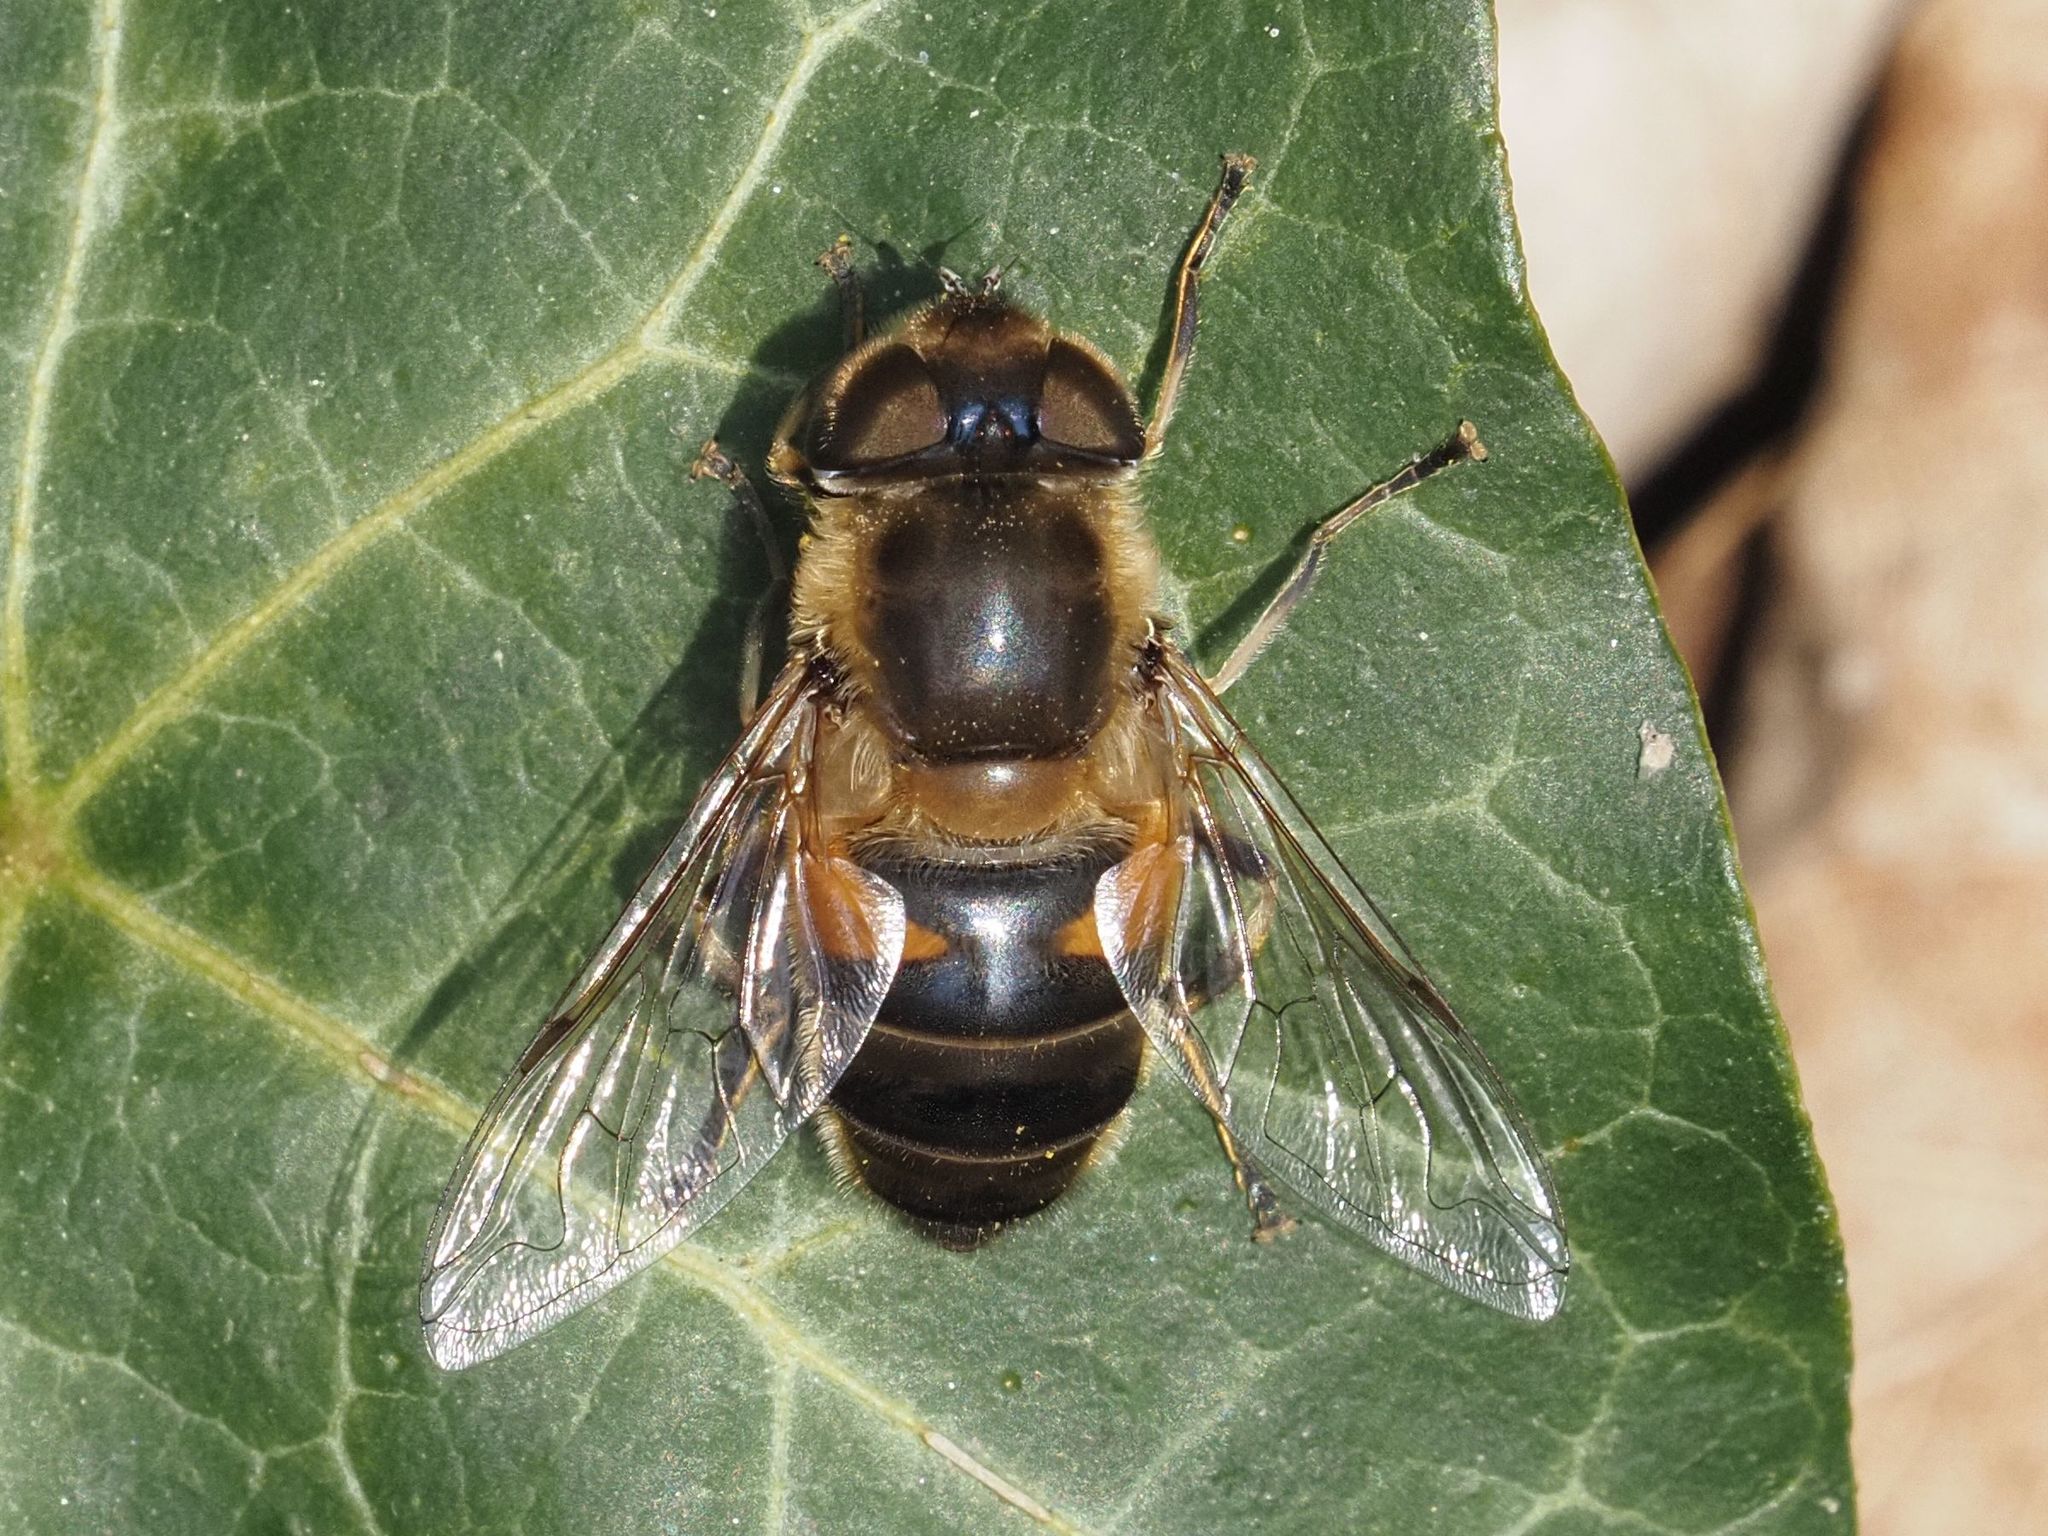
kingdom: Animalia
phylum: Arthropoda
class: Insecta
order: Diptera
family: Syrphidae
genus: Eristalis
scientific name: Eristalis pertinax
